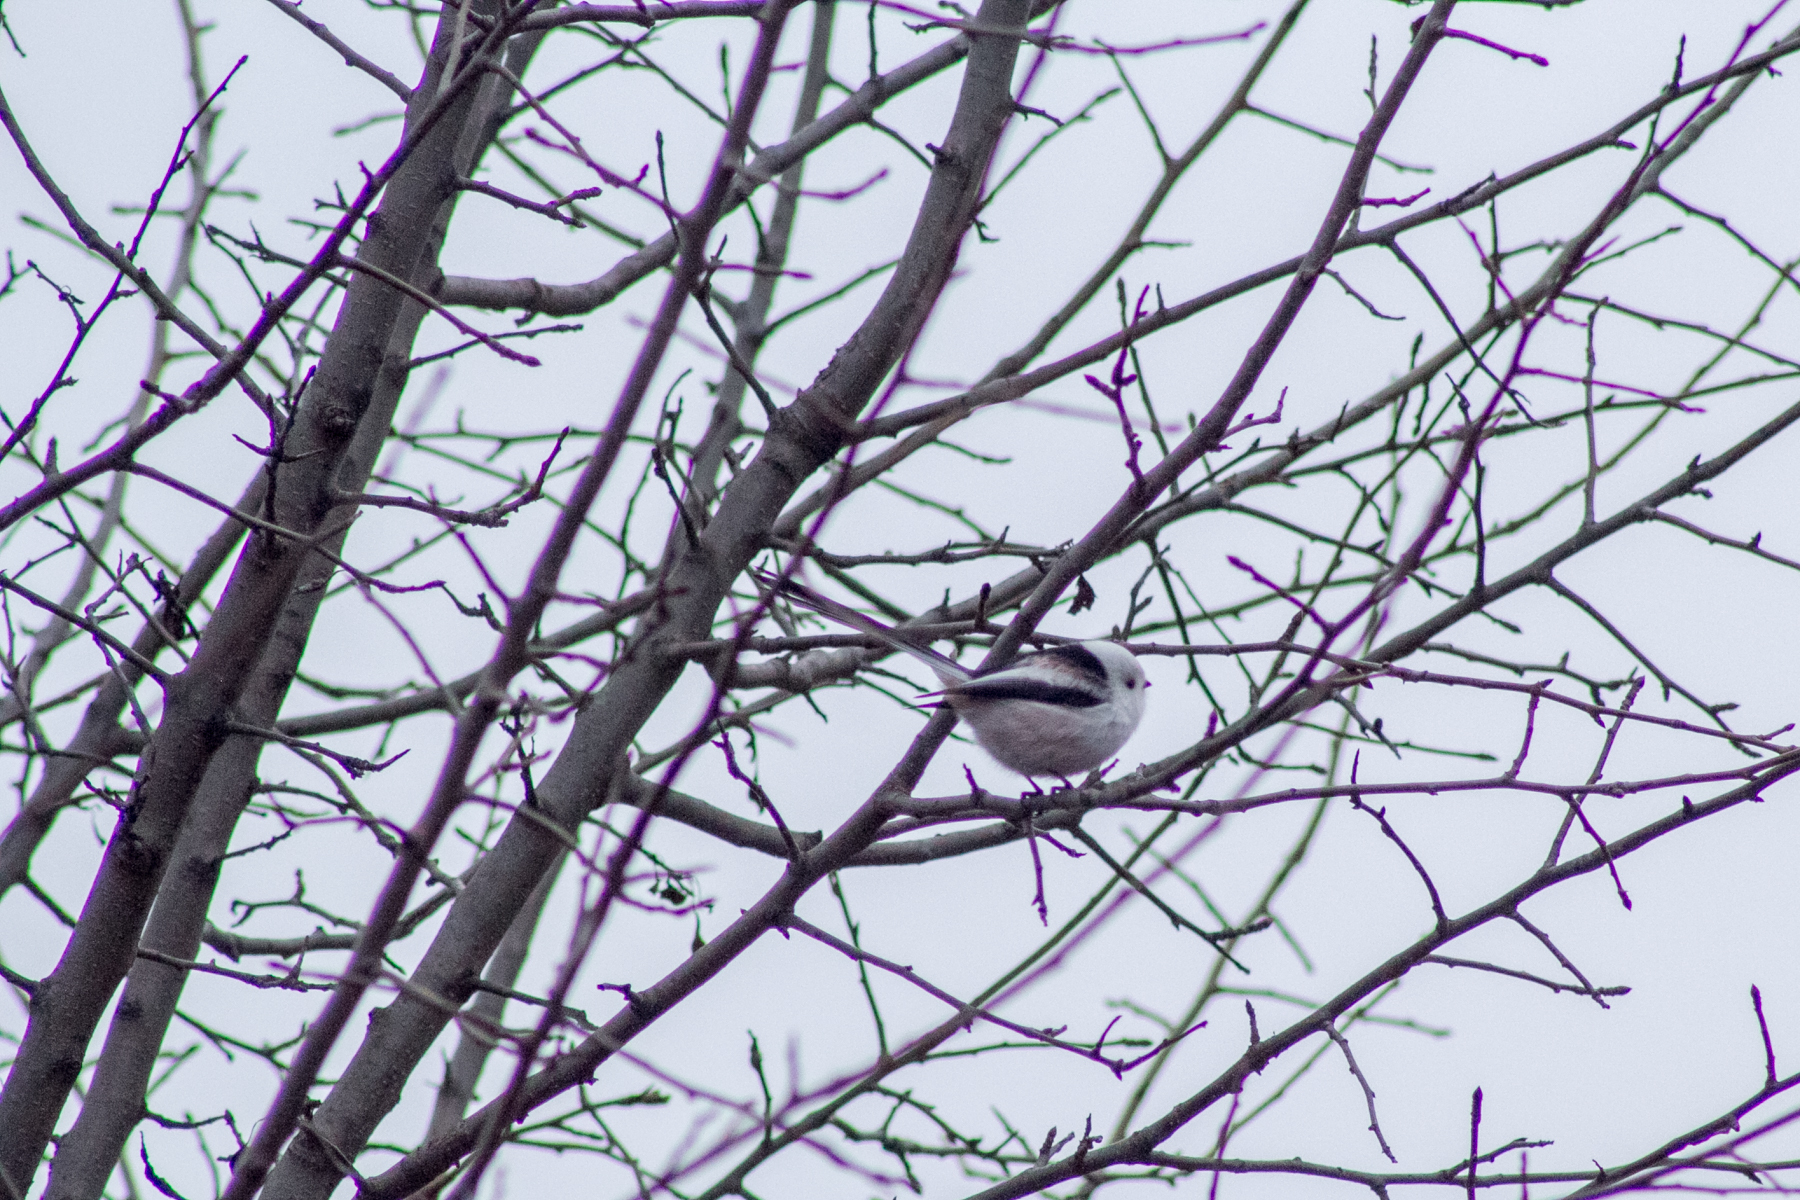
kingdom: Animalia
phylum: Chordata
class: Aves
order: Passeriformes
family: Aegithalidae
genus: Aegithalos
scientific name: Aegithalos caudatus
